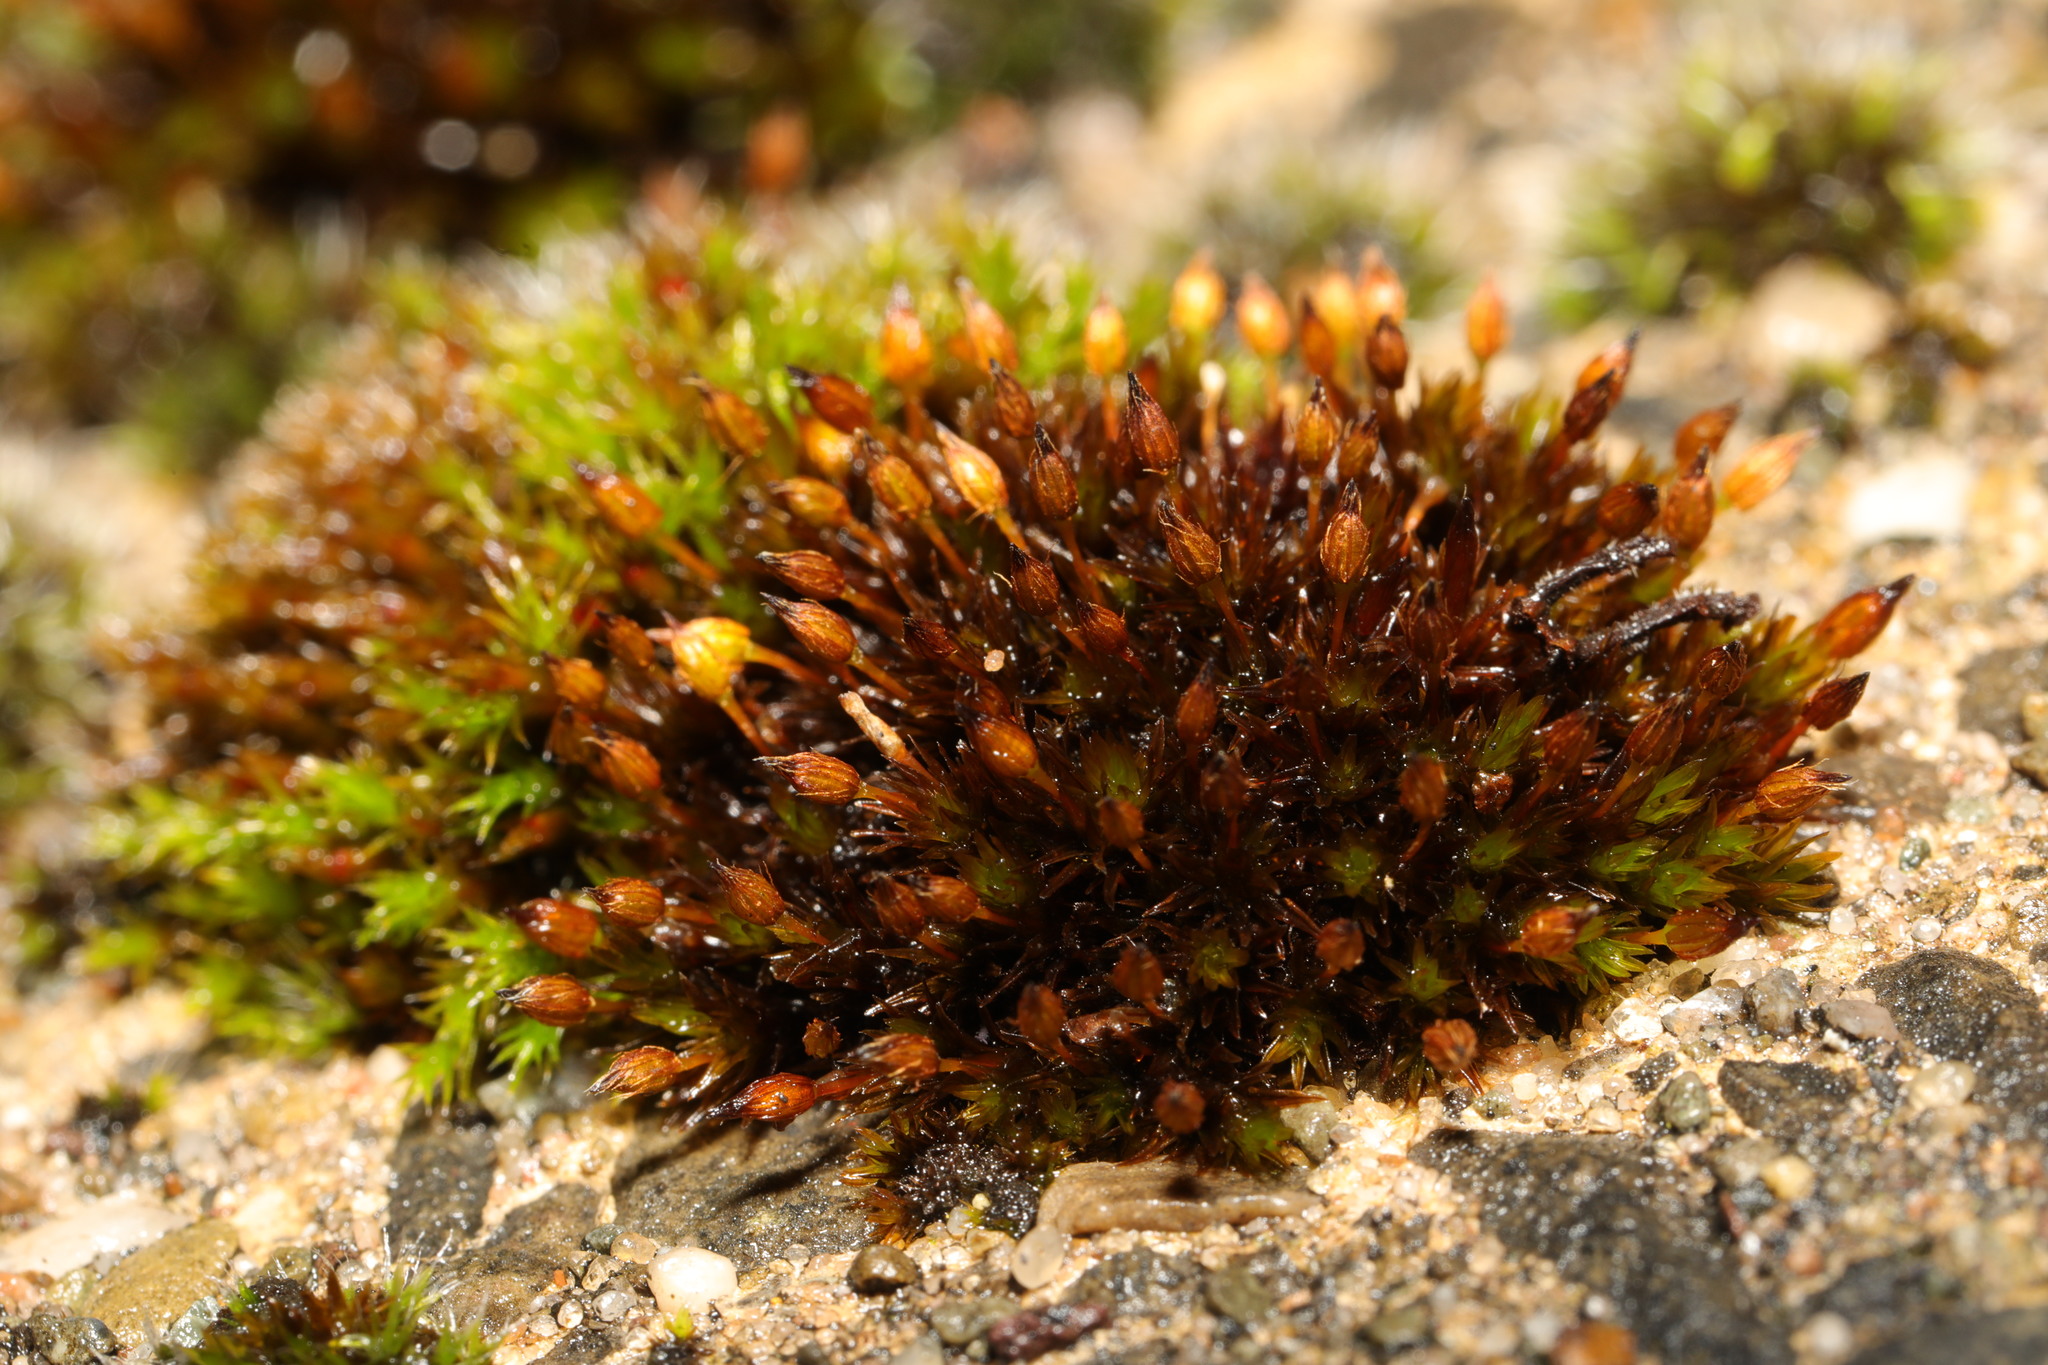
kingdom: Plantae
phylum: Bryophyta
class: Bryopsida
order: Orthotrichales
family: Orthotrichaceae
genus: Orthotrichum
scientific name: Orthotrichum anomalum
